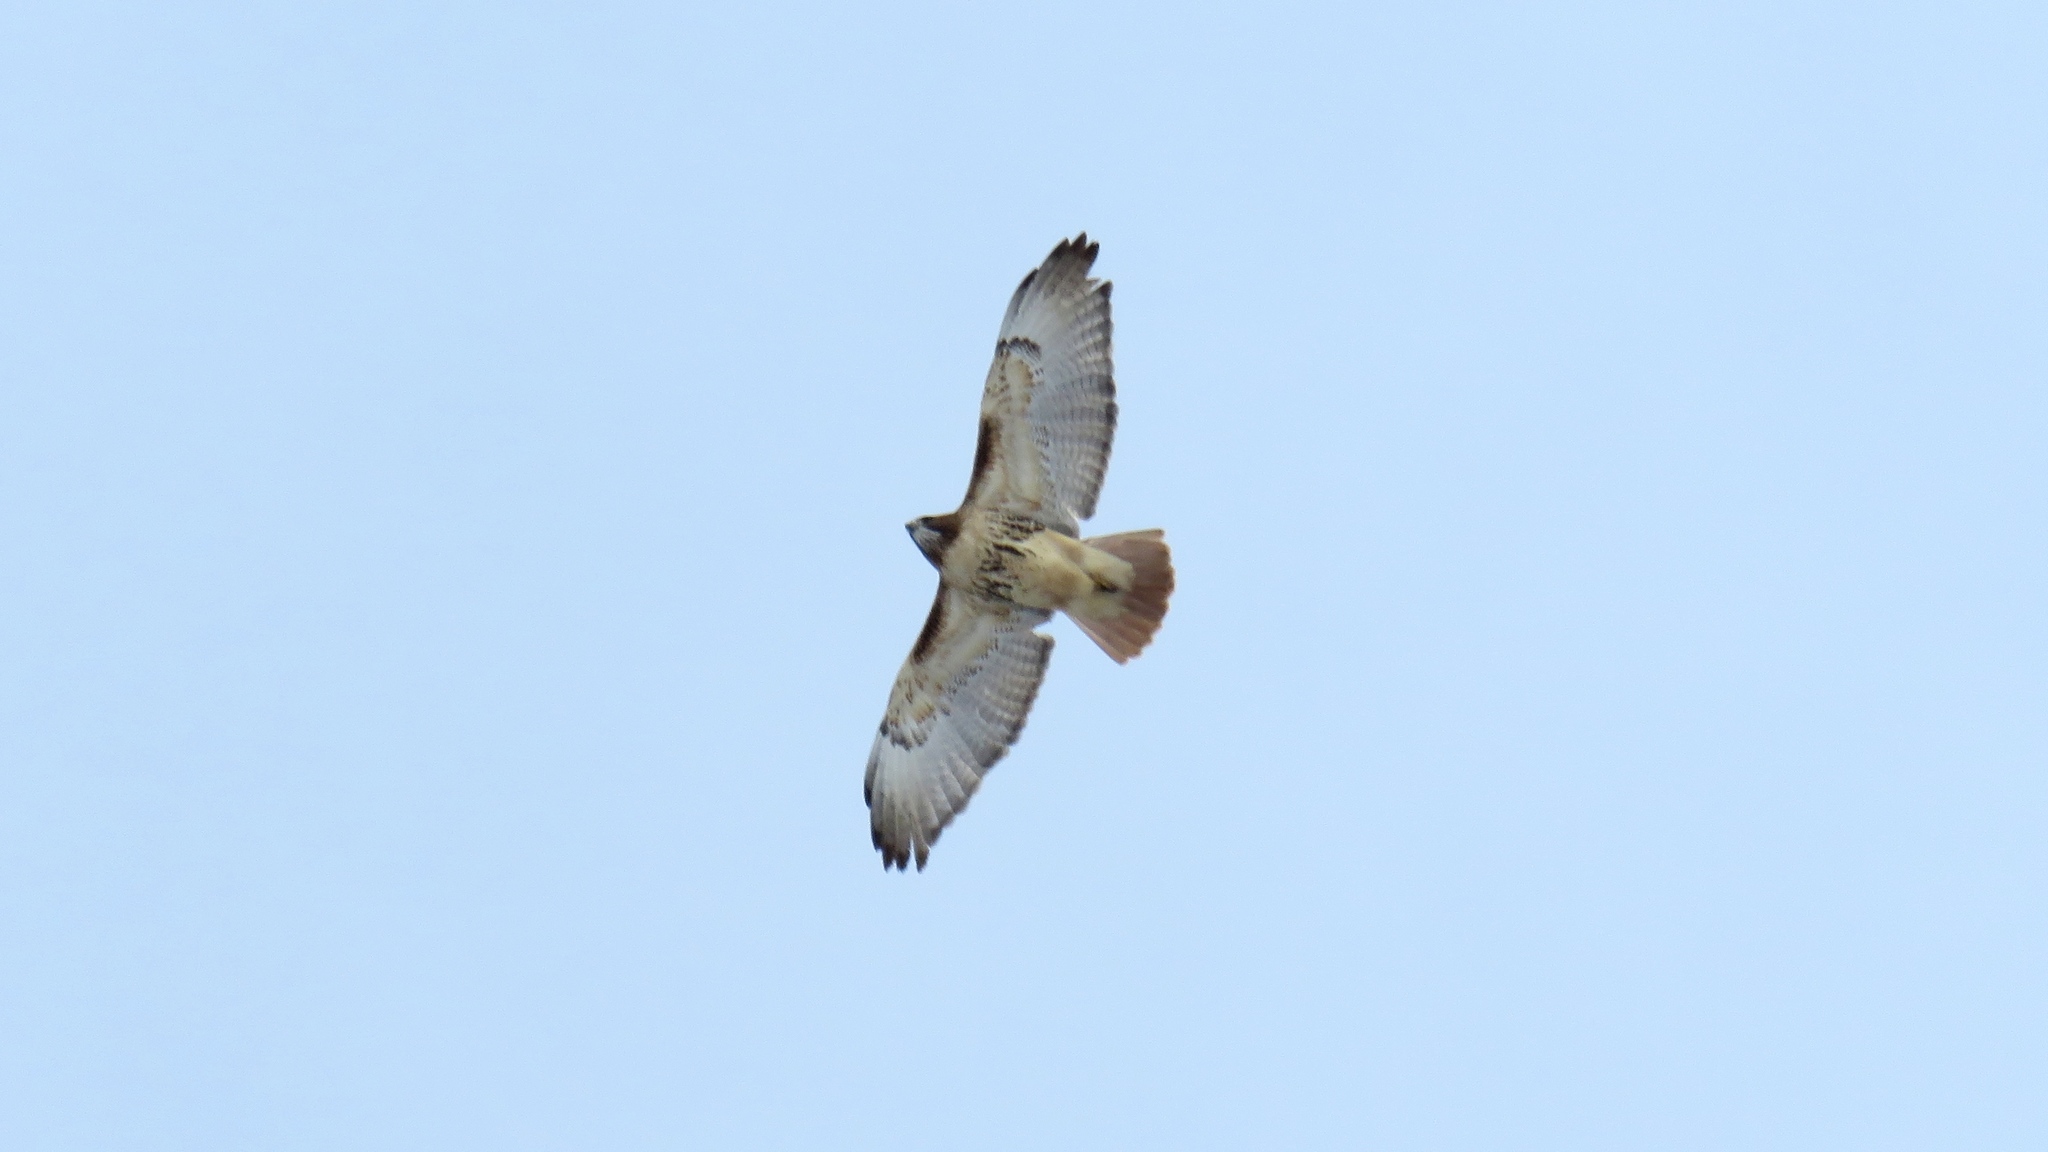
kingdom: Animalia
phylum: Chordata
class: Aves
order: Accipitriformes
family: Accipitridae
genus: Buteo
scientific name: Buteo jamaicensis
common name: Red-tailed hawk
